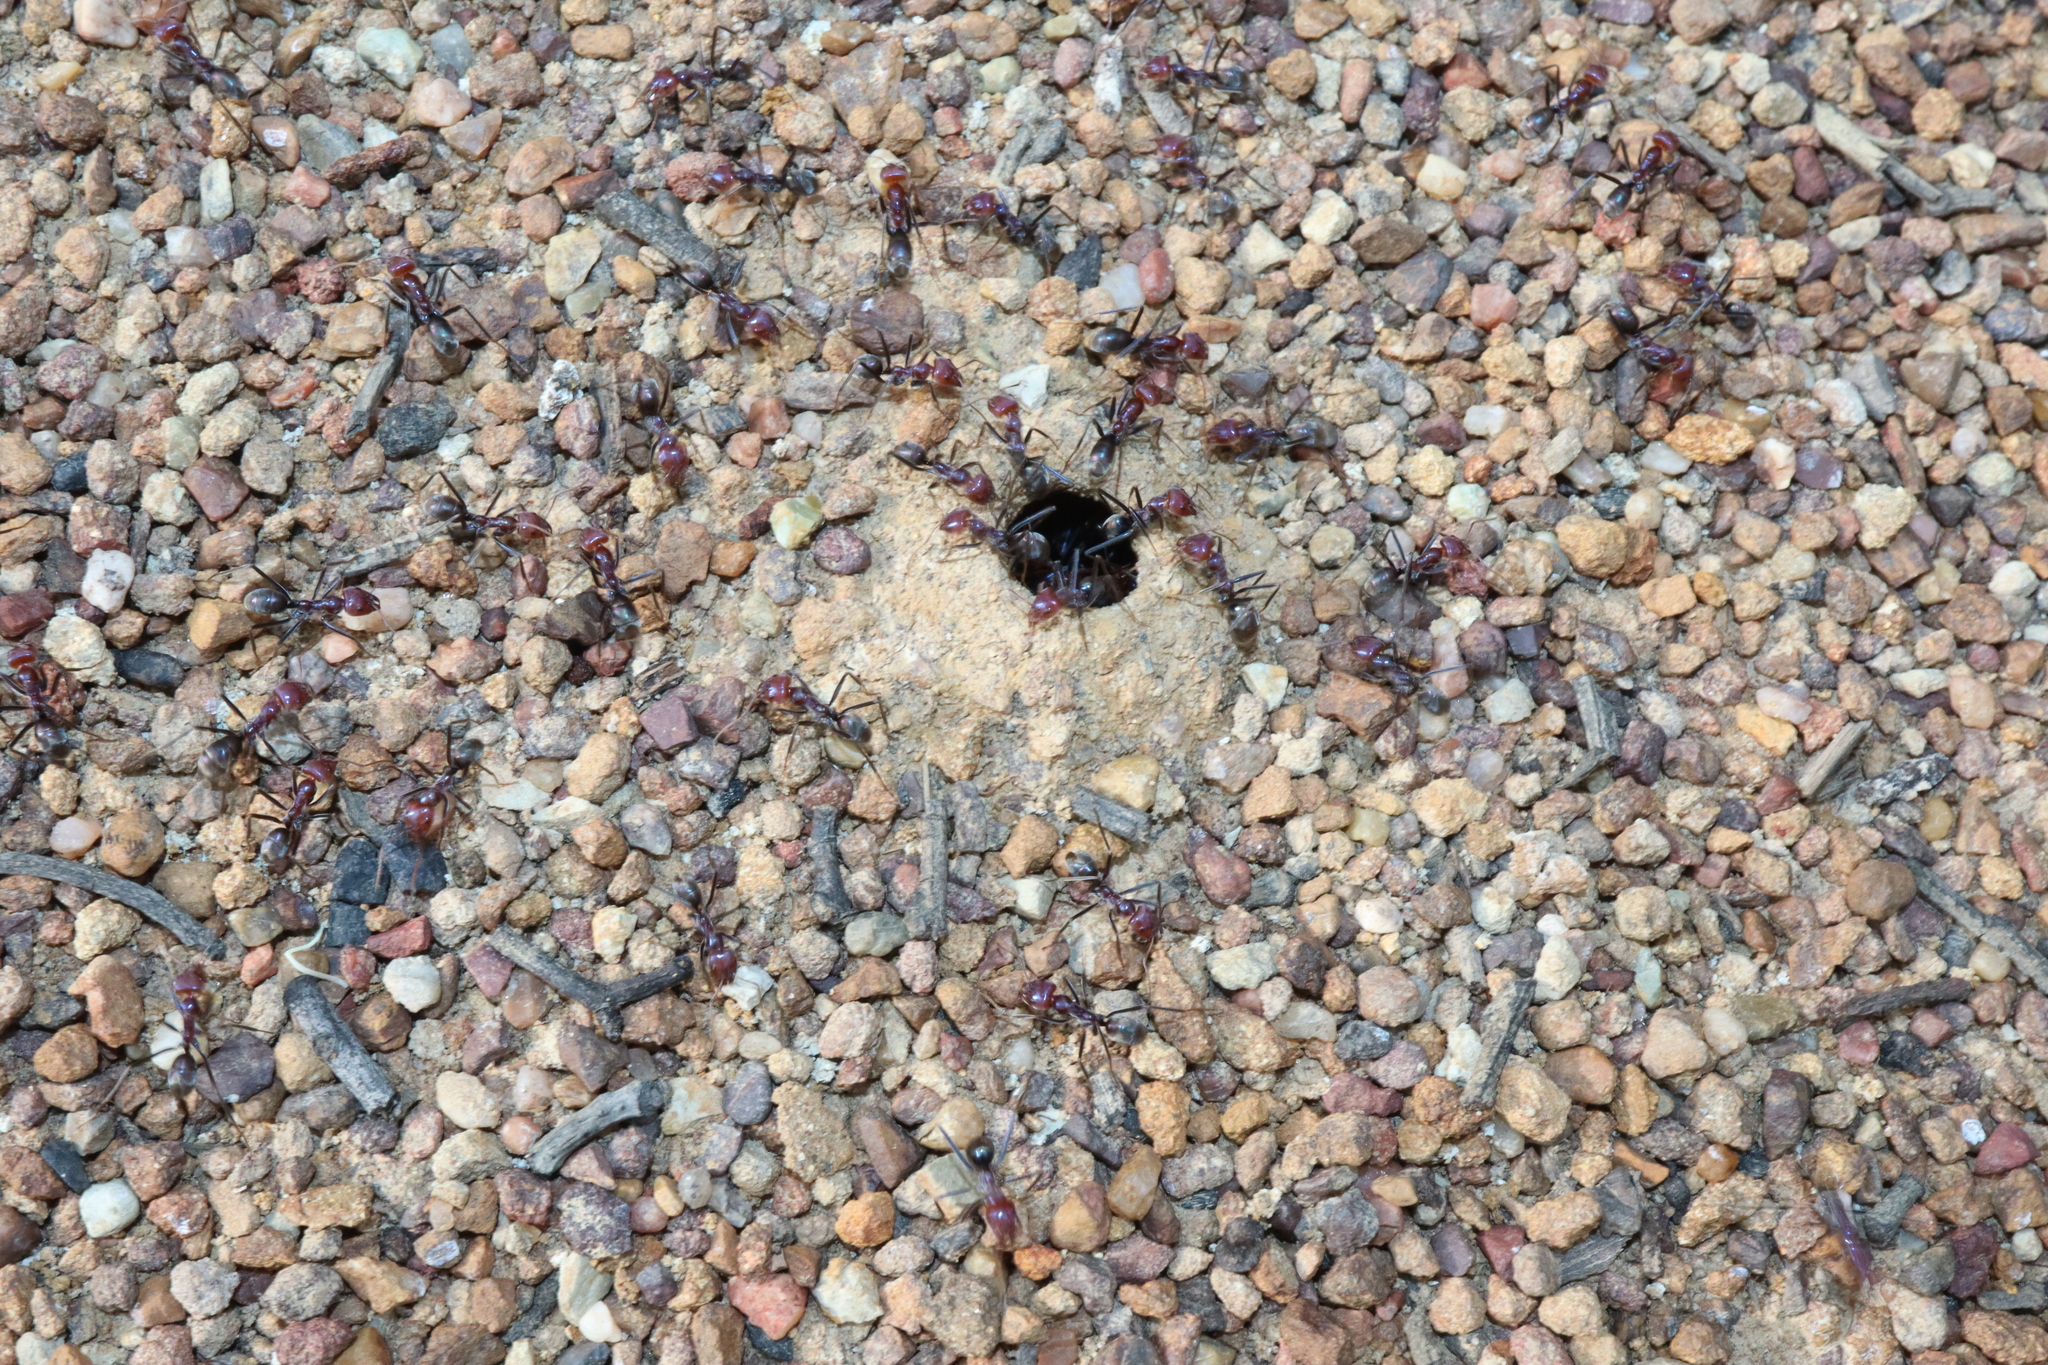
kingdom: Animalia
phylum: Arthropoda
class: Insecta
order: Hymenoptera
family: Formicidae
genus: Iridomyrmex
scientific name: Iridomyrmex purpureus
